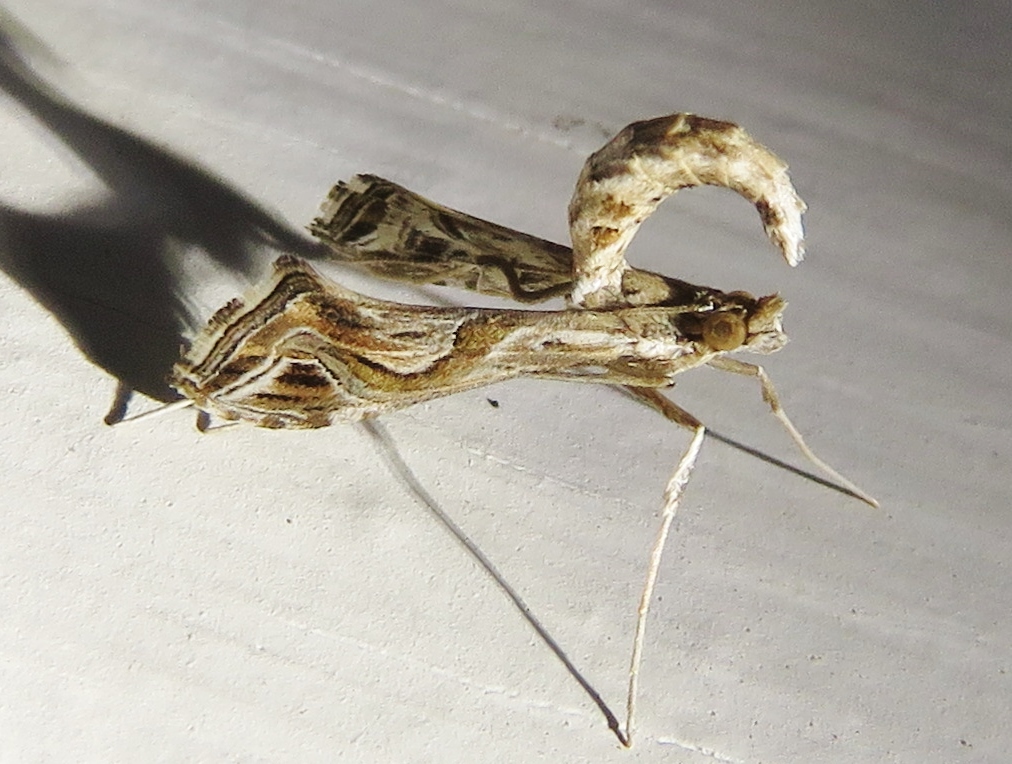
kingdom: Animalia
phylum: Arthropoda
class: Insecta
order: Lepidoptera
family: Crambidae
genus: Lineodes
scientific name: Lineodes integra
